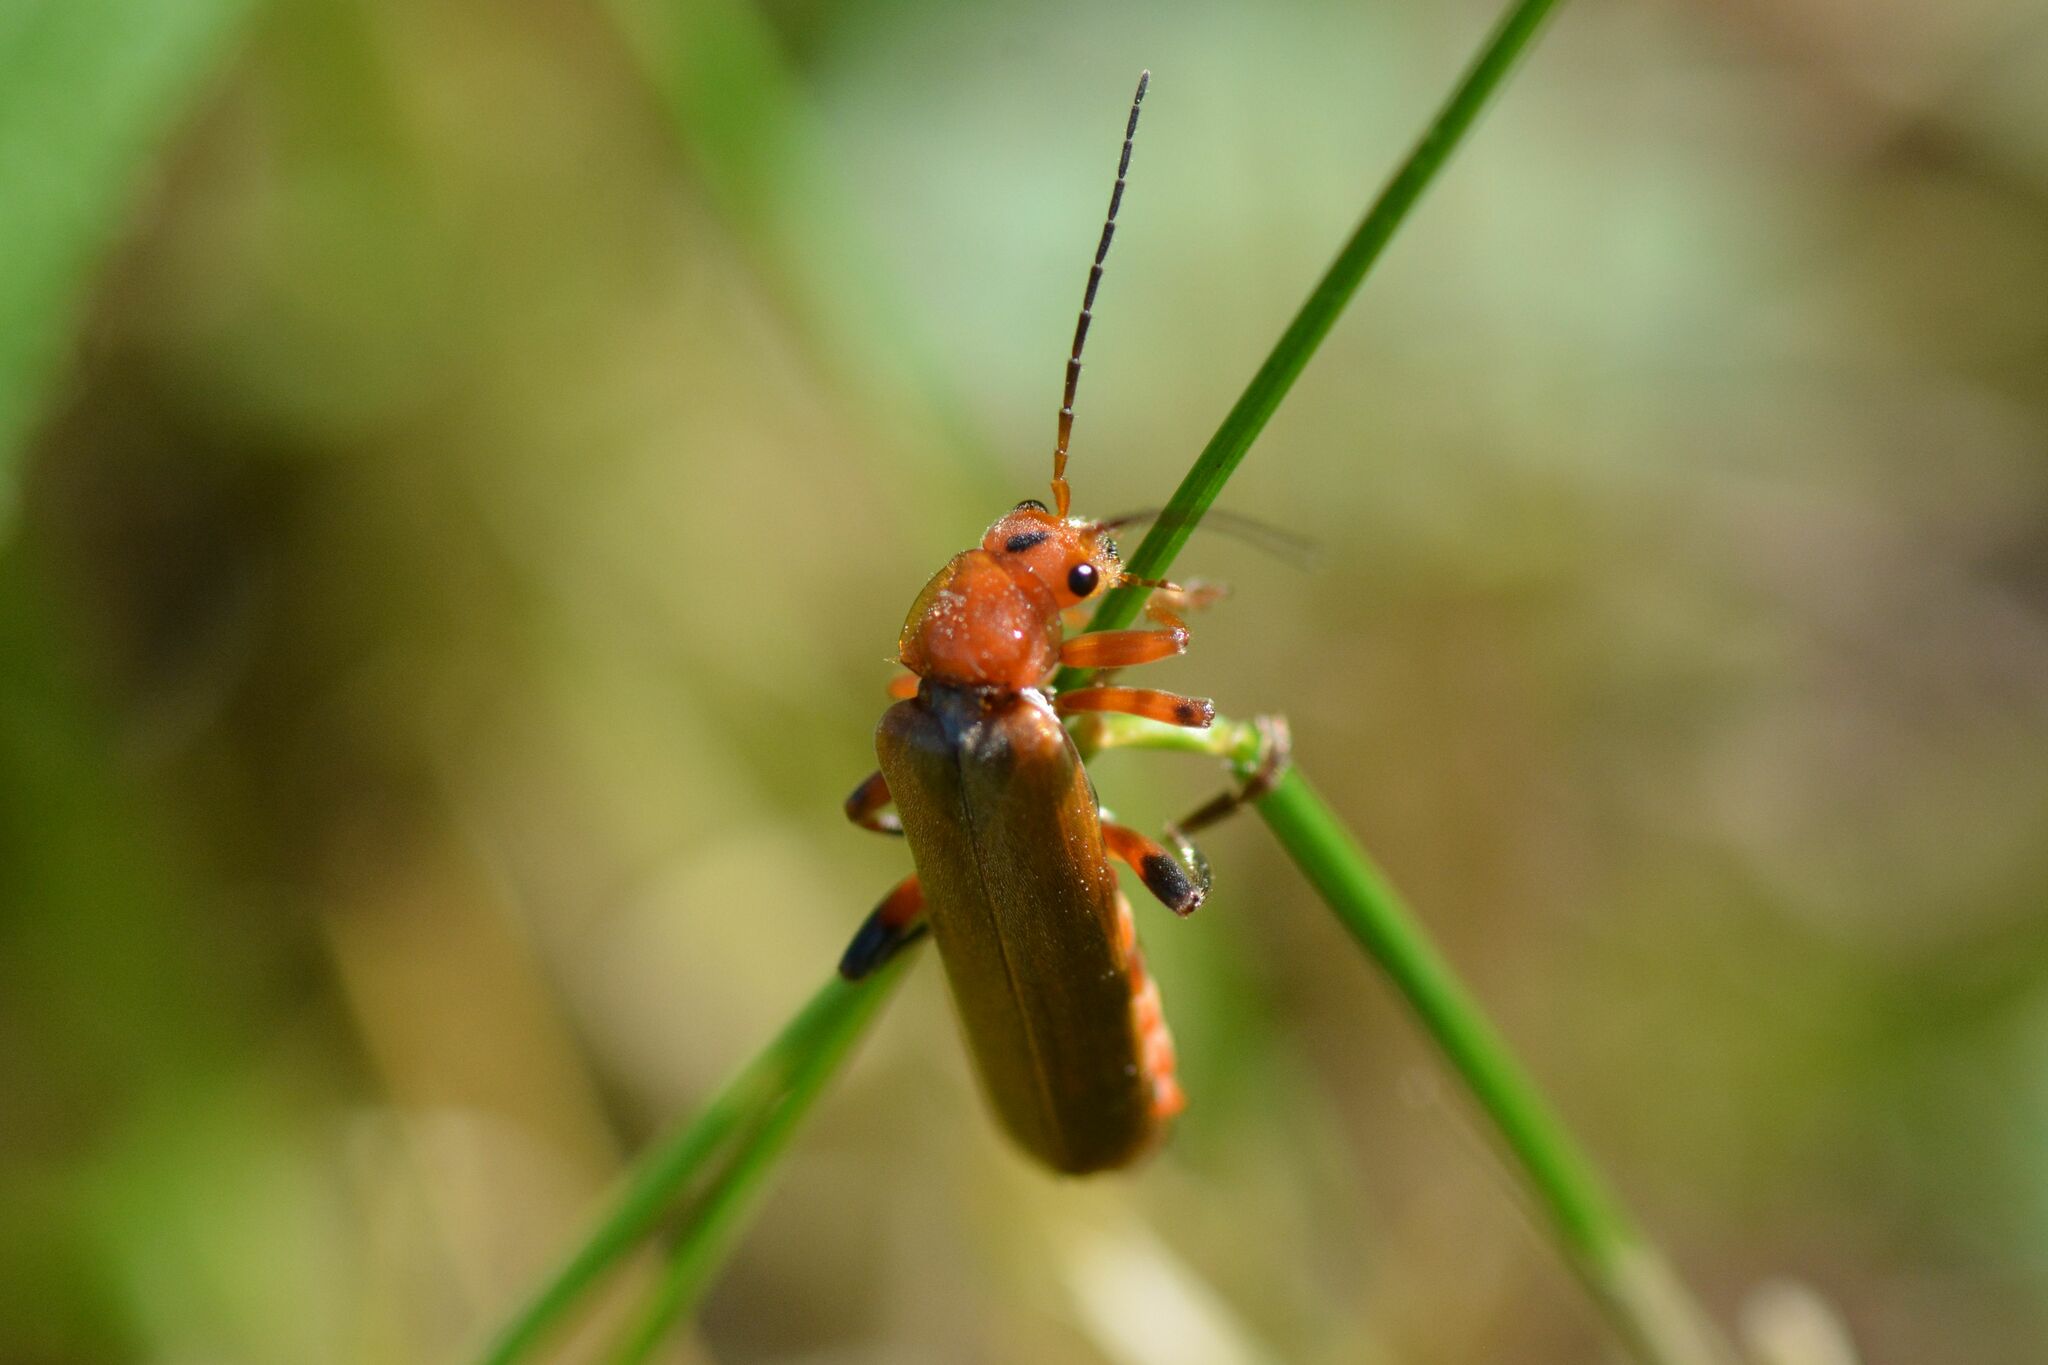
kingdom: Animalia
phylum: Arthropoda
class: Insecta
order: Coleoptera
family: Cantharidae
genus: Cantharis
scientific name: Cantharis livida
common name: Livid soldier beetle
